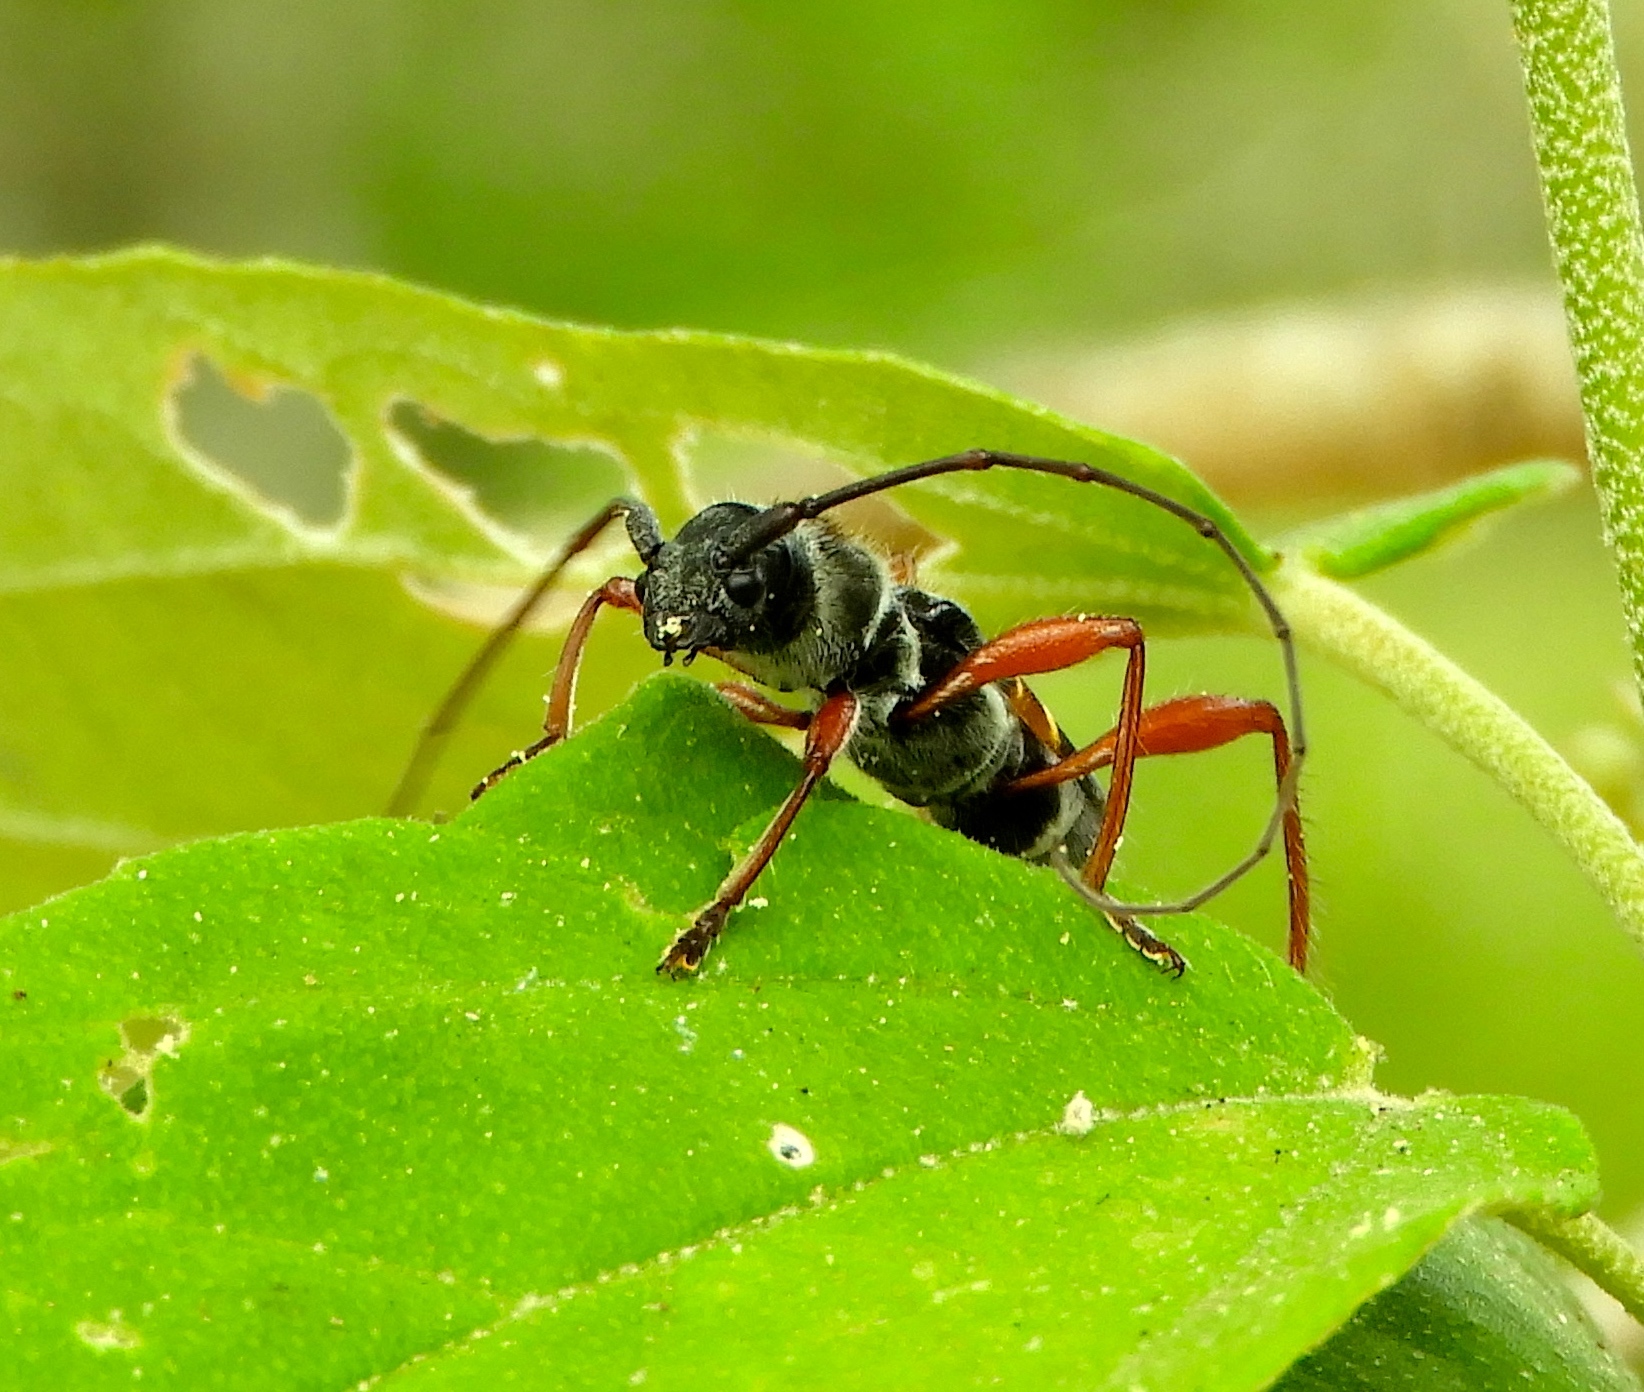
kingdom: Animalia
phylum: Arthropoda
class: Insecta
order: Coleoptera
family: Cerambycidae
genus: Euderces
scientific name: Euderces pulcher
